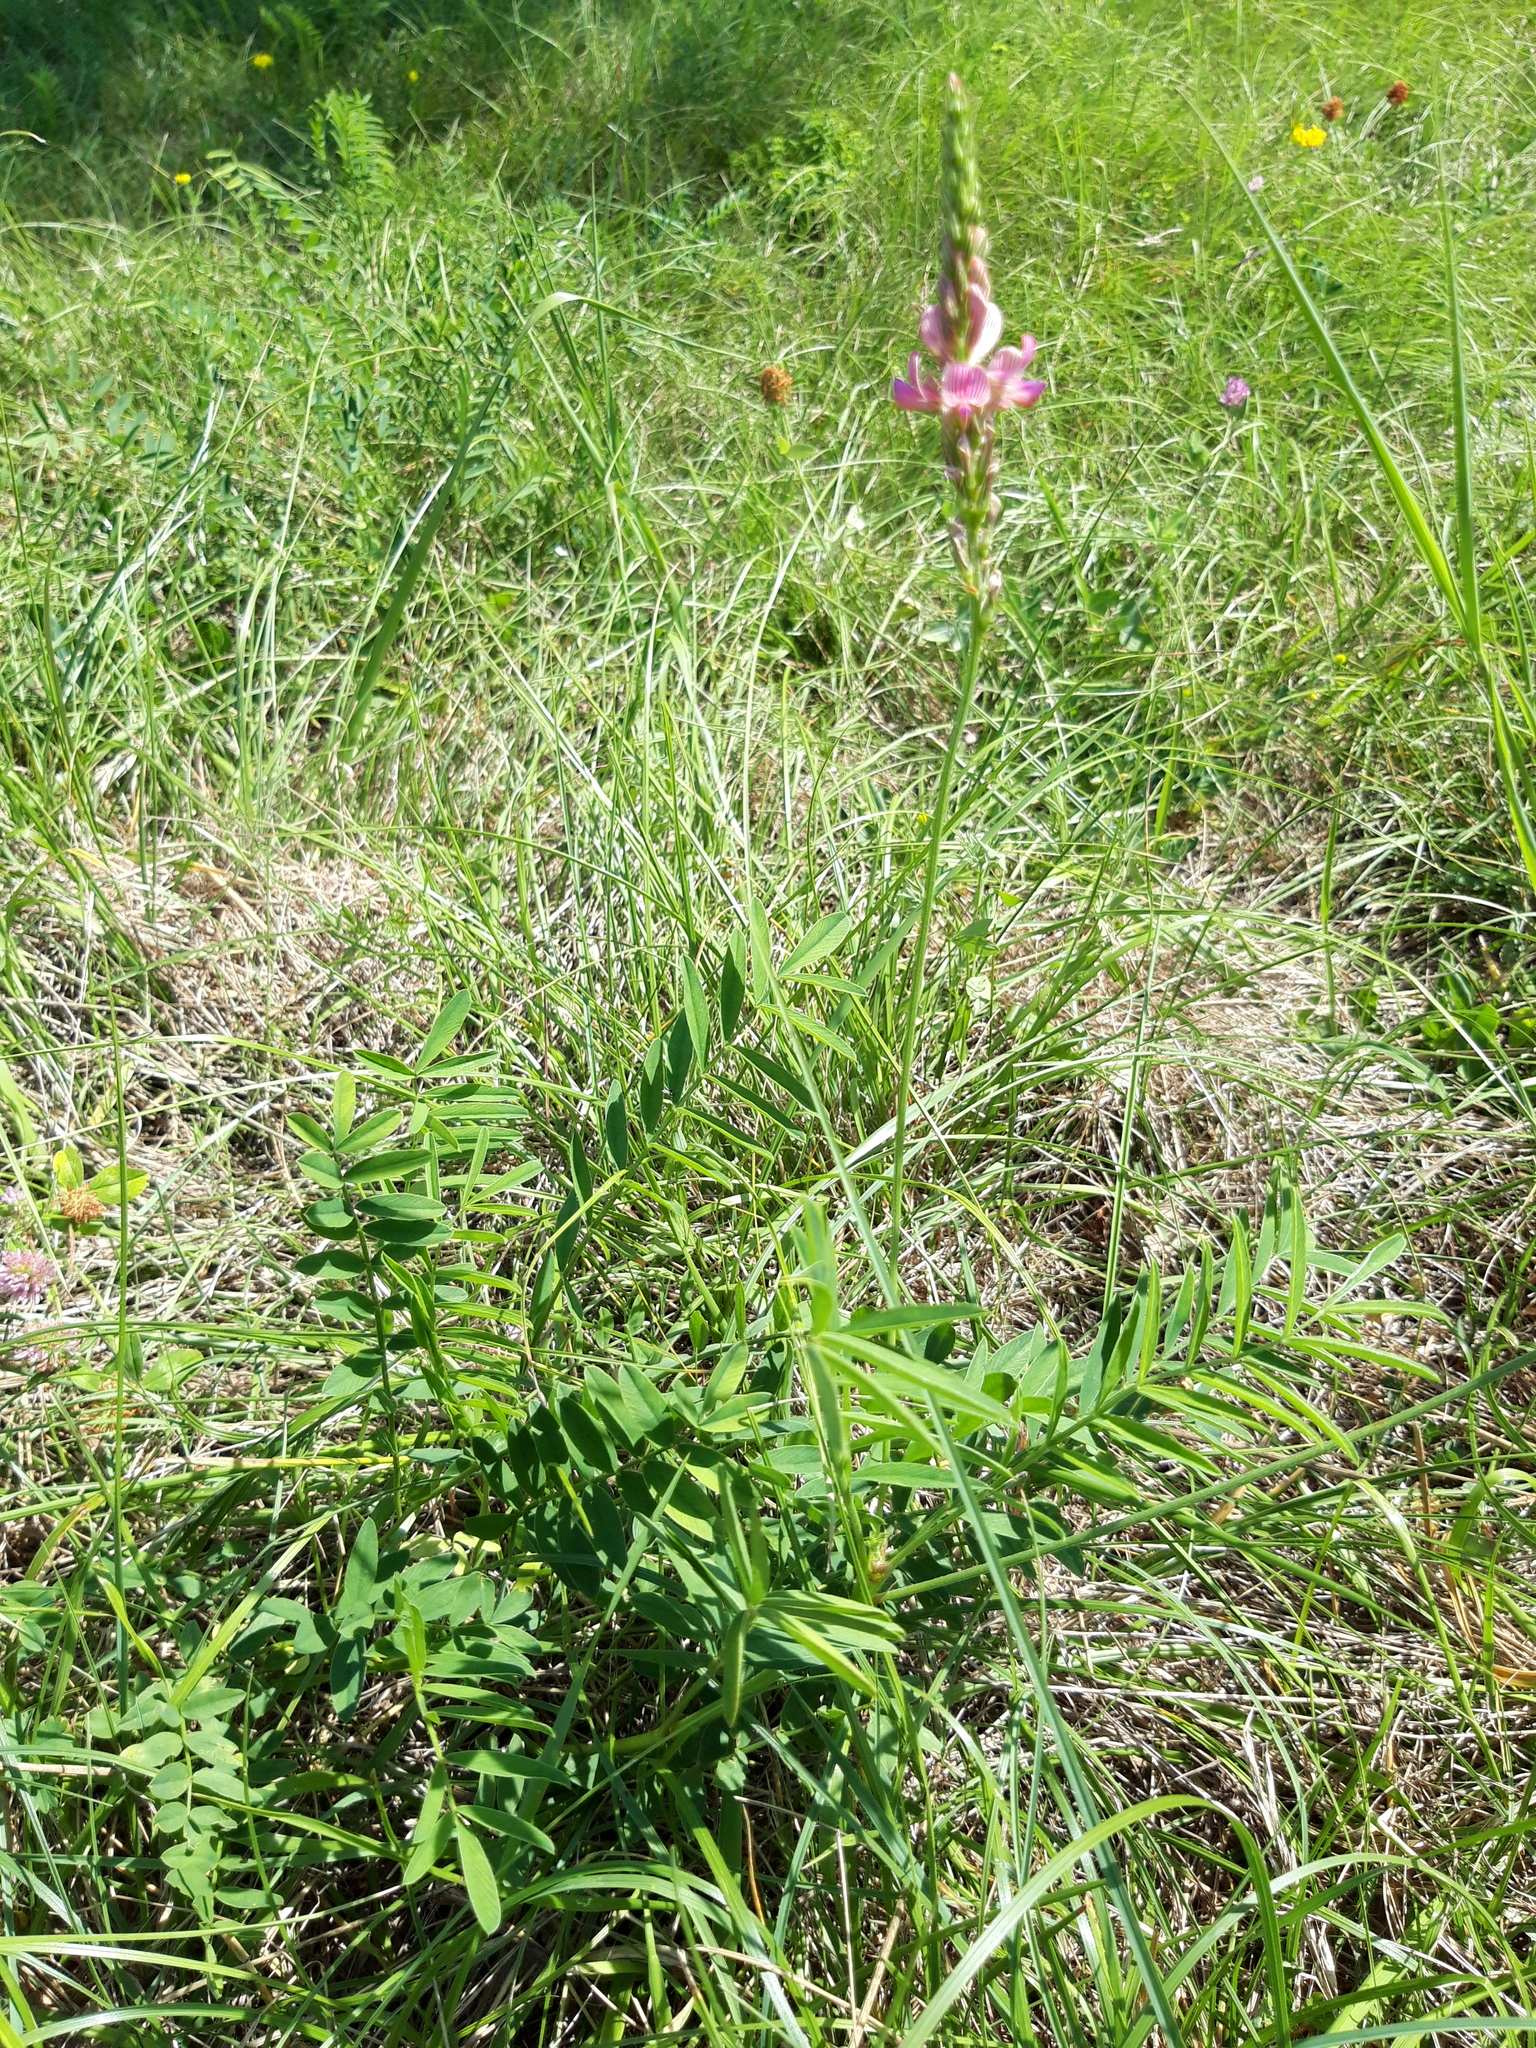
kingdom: Plantae
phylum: Tracheophyta
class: Magnoliopsida
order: Fabales
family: Fabaceae
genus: Onobrychis
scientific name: Onobrychis viciifolia
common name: Sainfoin
